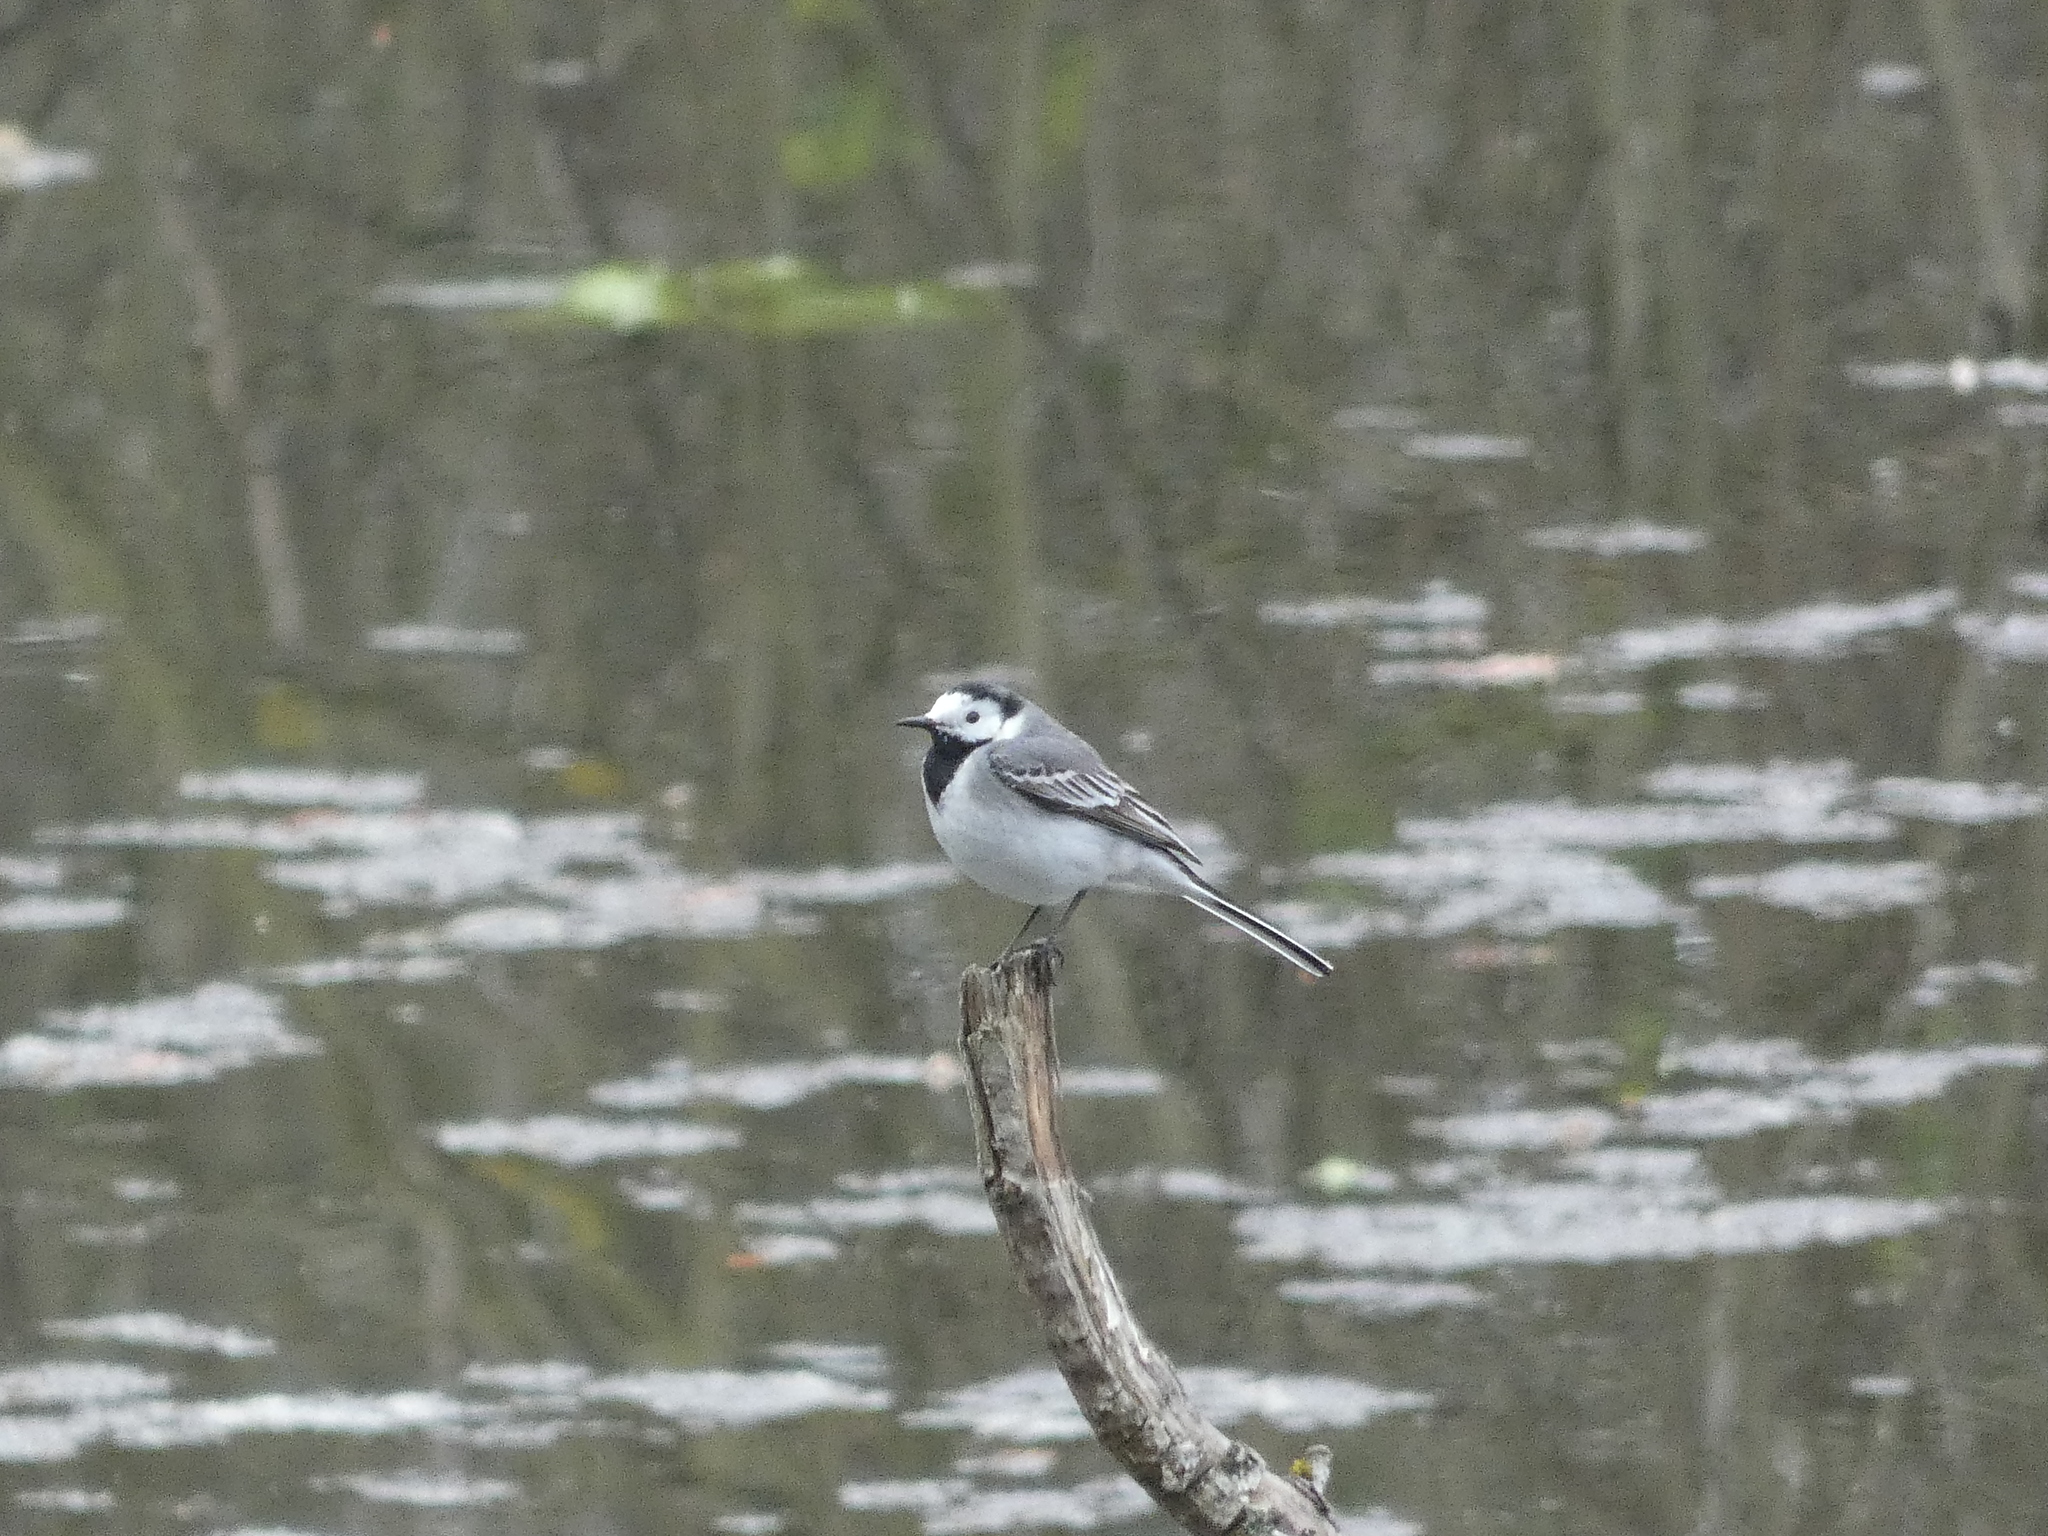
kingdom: Animalia
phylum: Chordata
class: Aves
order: Passeriformes
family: Motacillidae
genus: Motacilla
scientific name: Motacilla alba
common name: White wagtail
